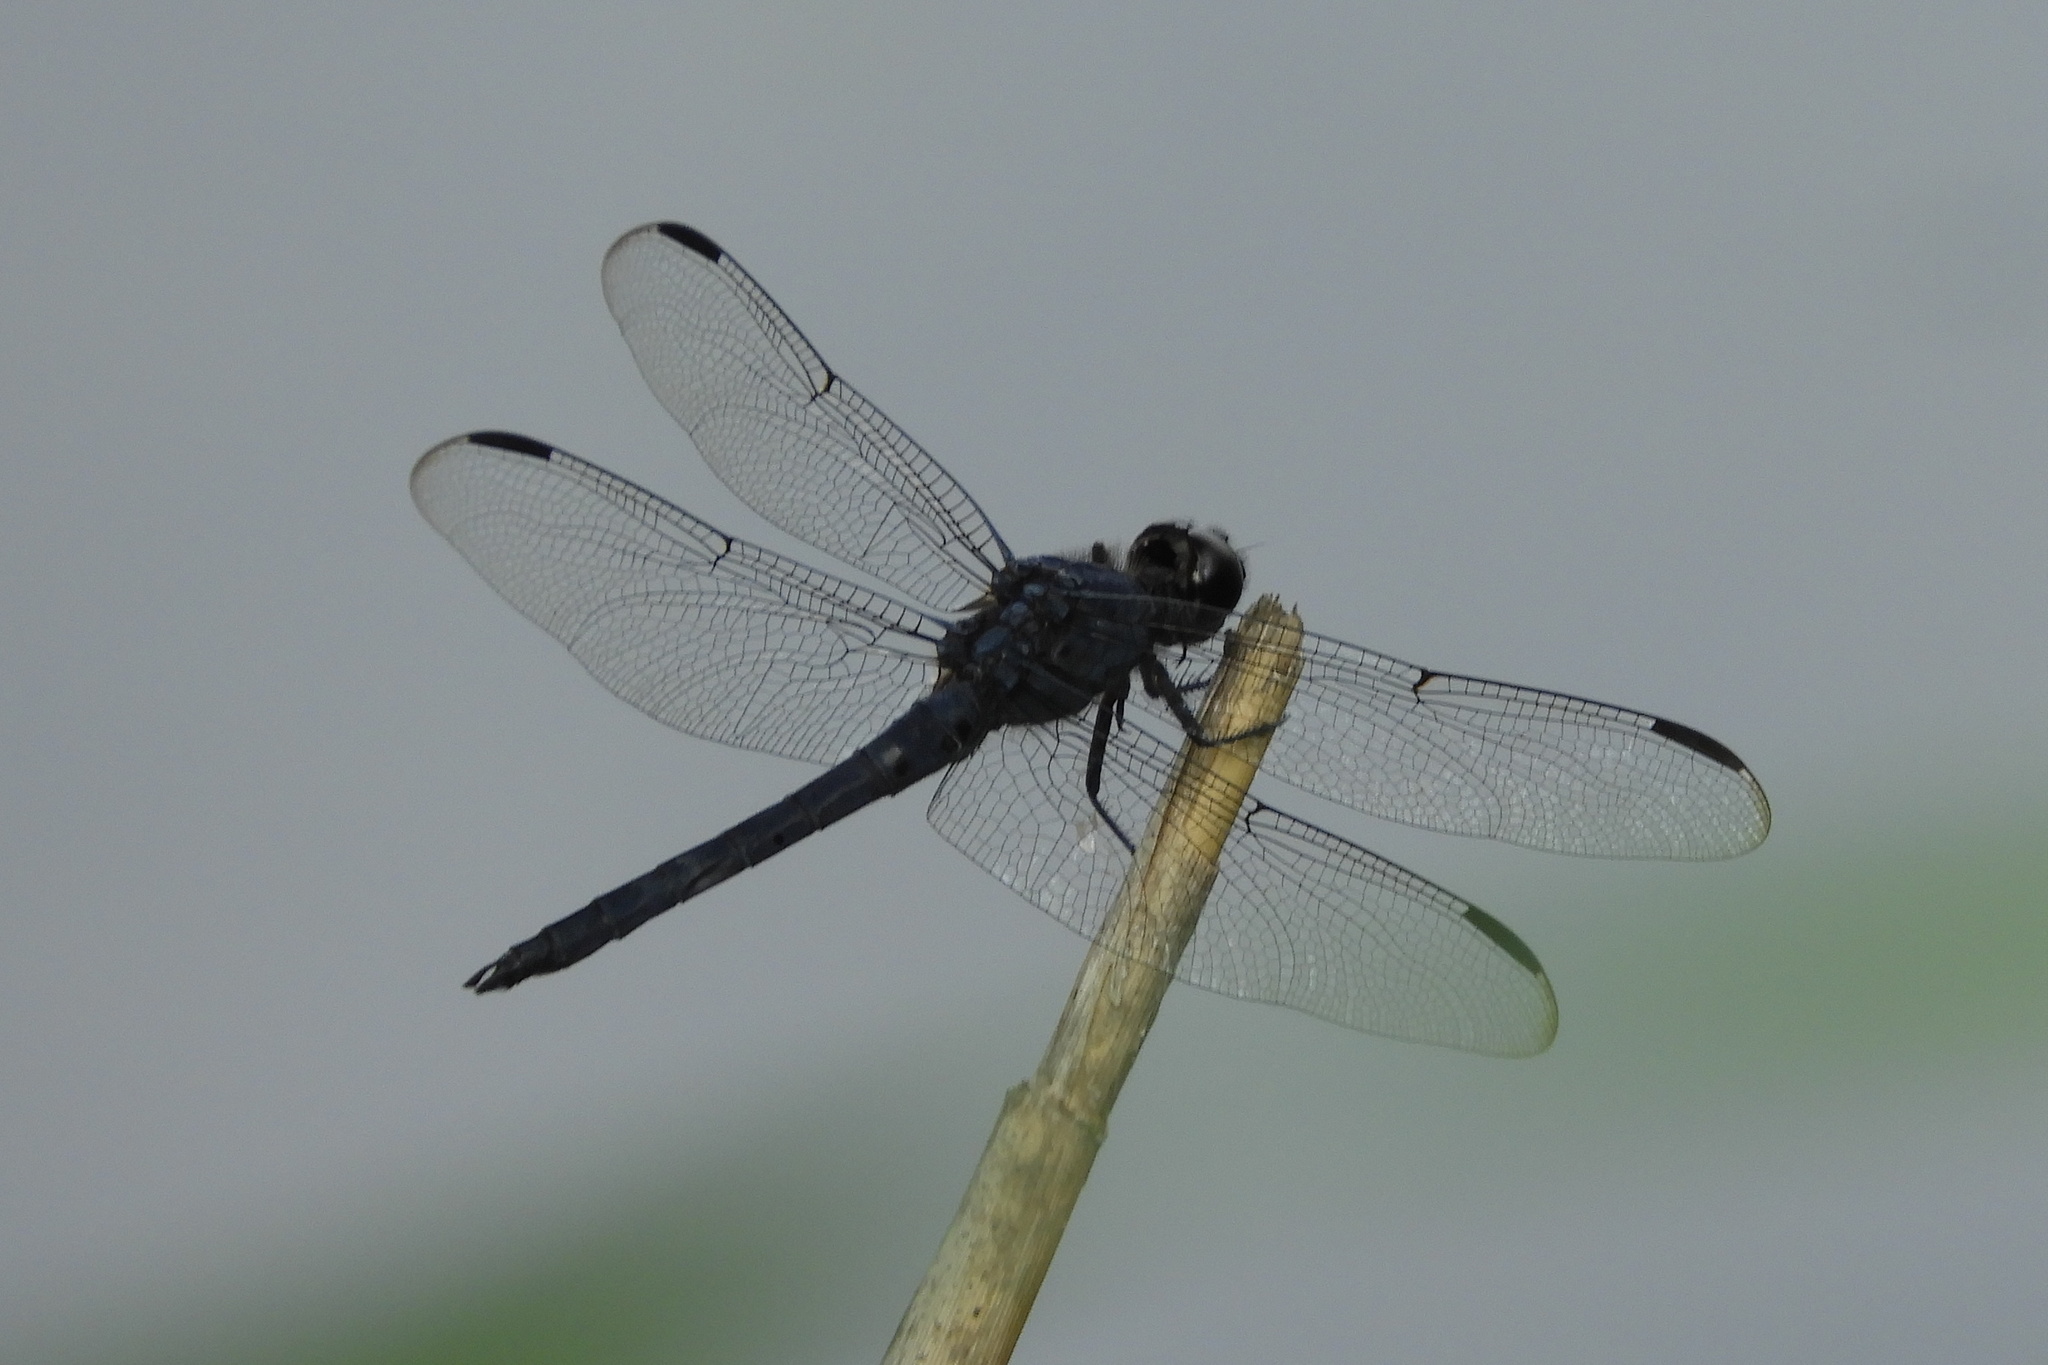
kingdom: Animalia
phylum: Arthropoda
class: Insecta
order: Odonata
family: Libellulidae
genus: Libellula
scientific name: Libellula incesta
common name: Slaty skimmer
